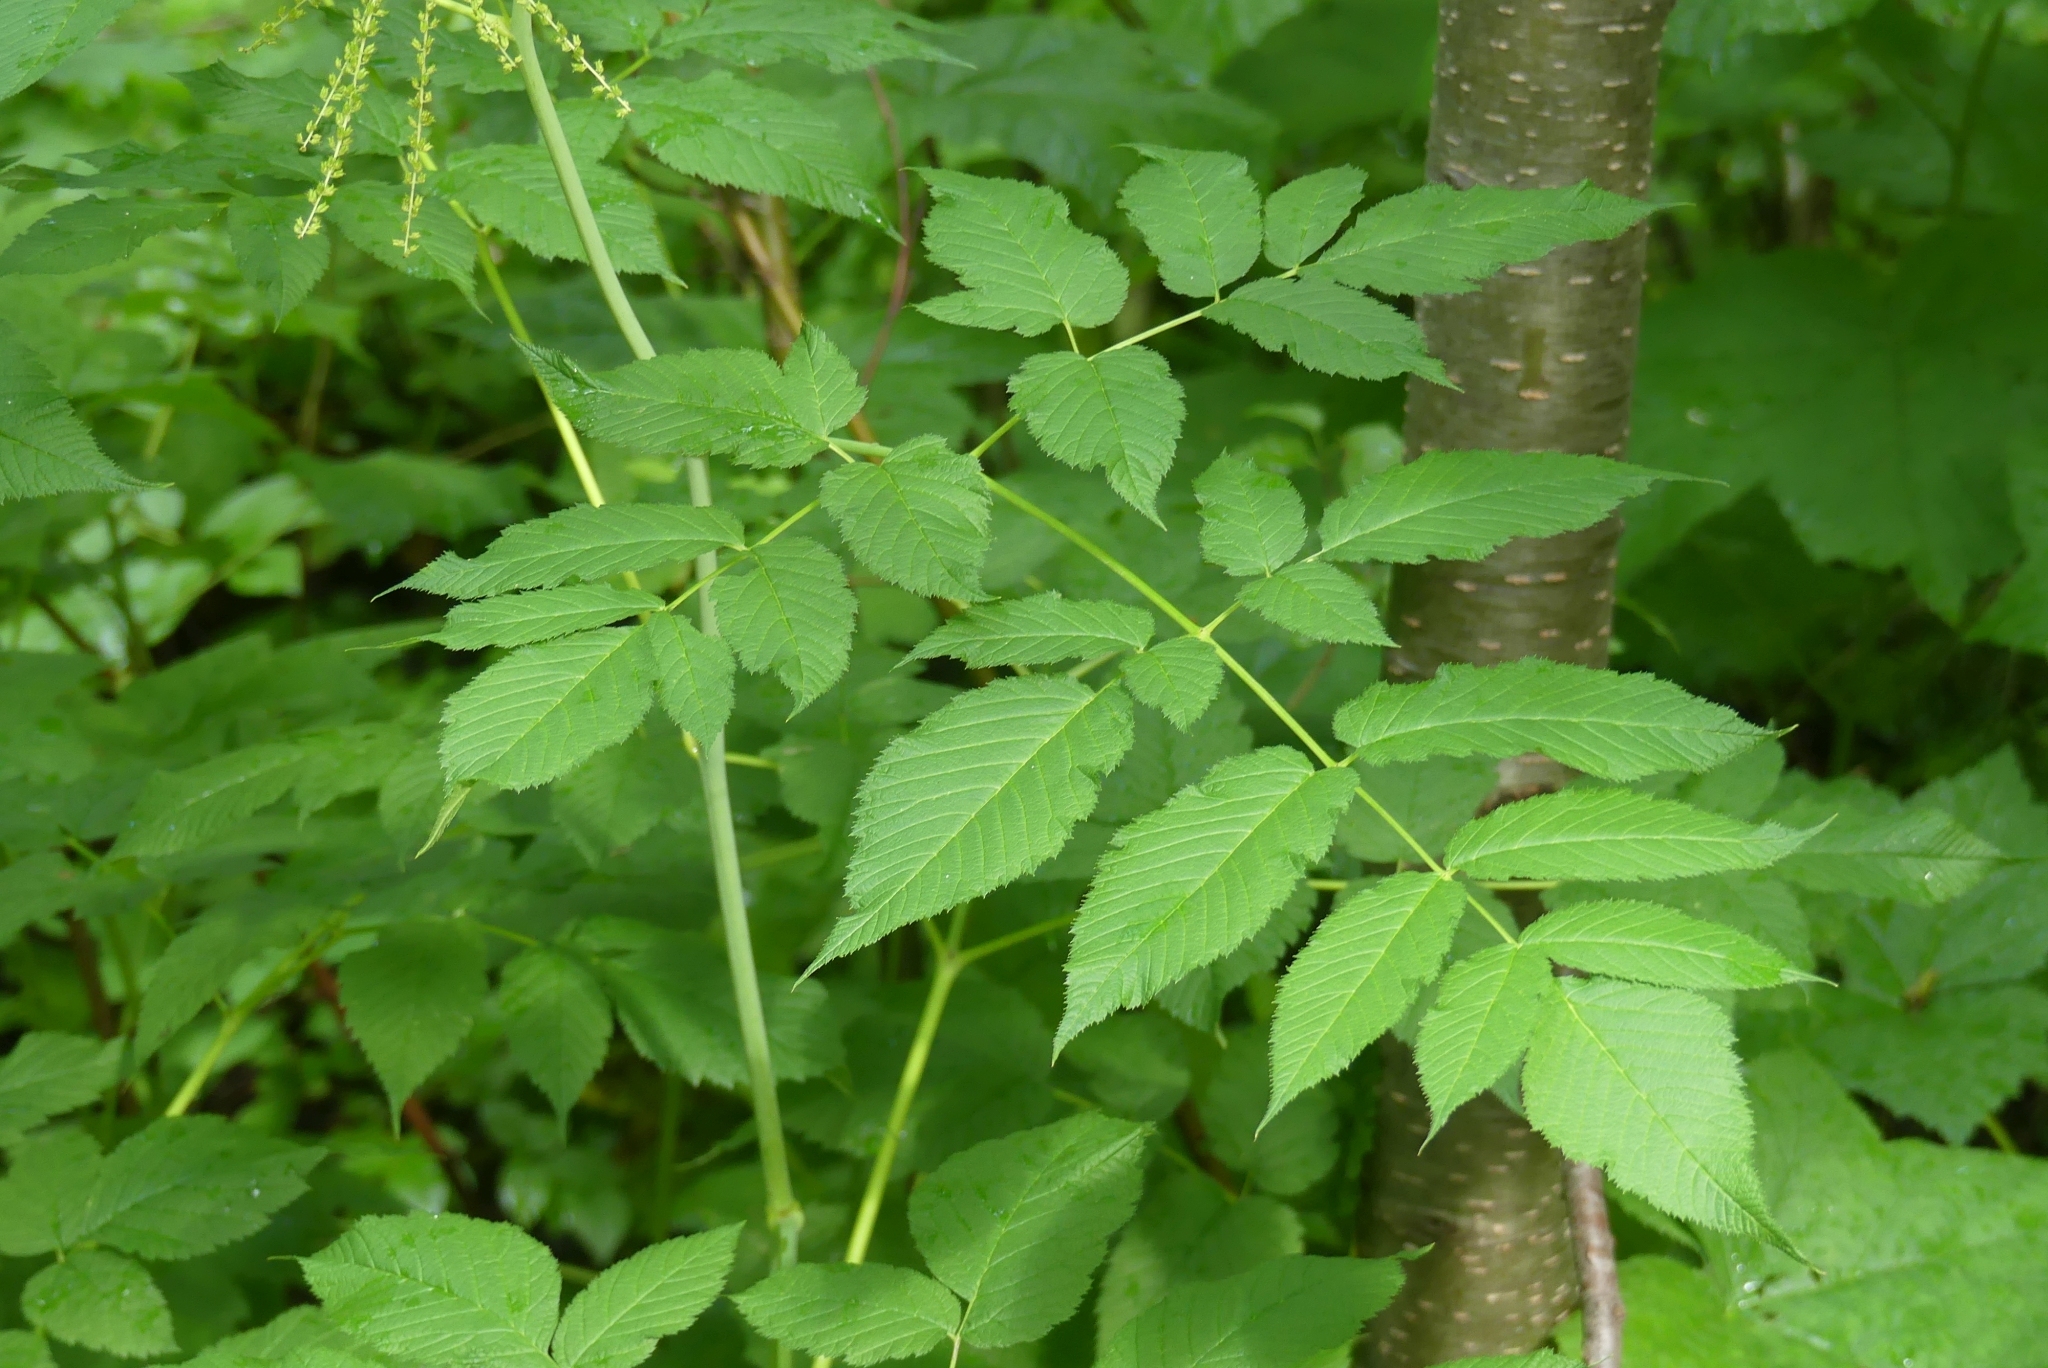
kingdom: Plantae
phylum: Tracheophyta
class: Magnoliopsida
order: Rosales
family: Rosaceae
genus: Aruncus
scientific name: Aruncus dioicus
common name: Buck's-beard
